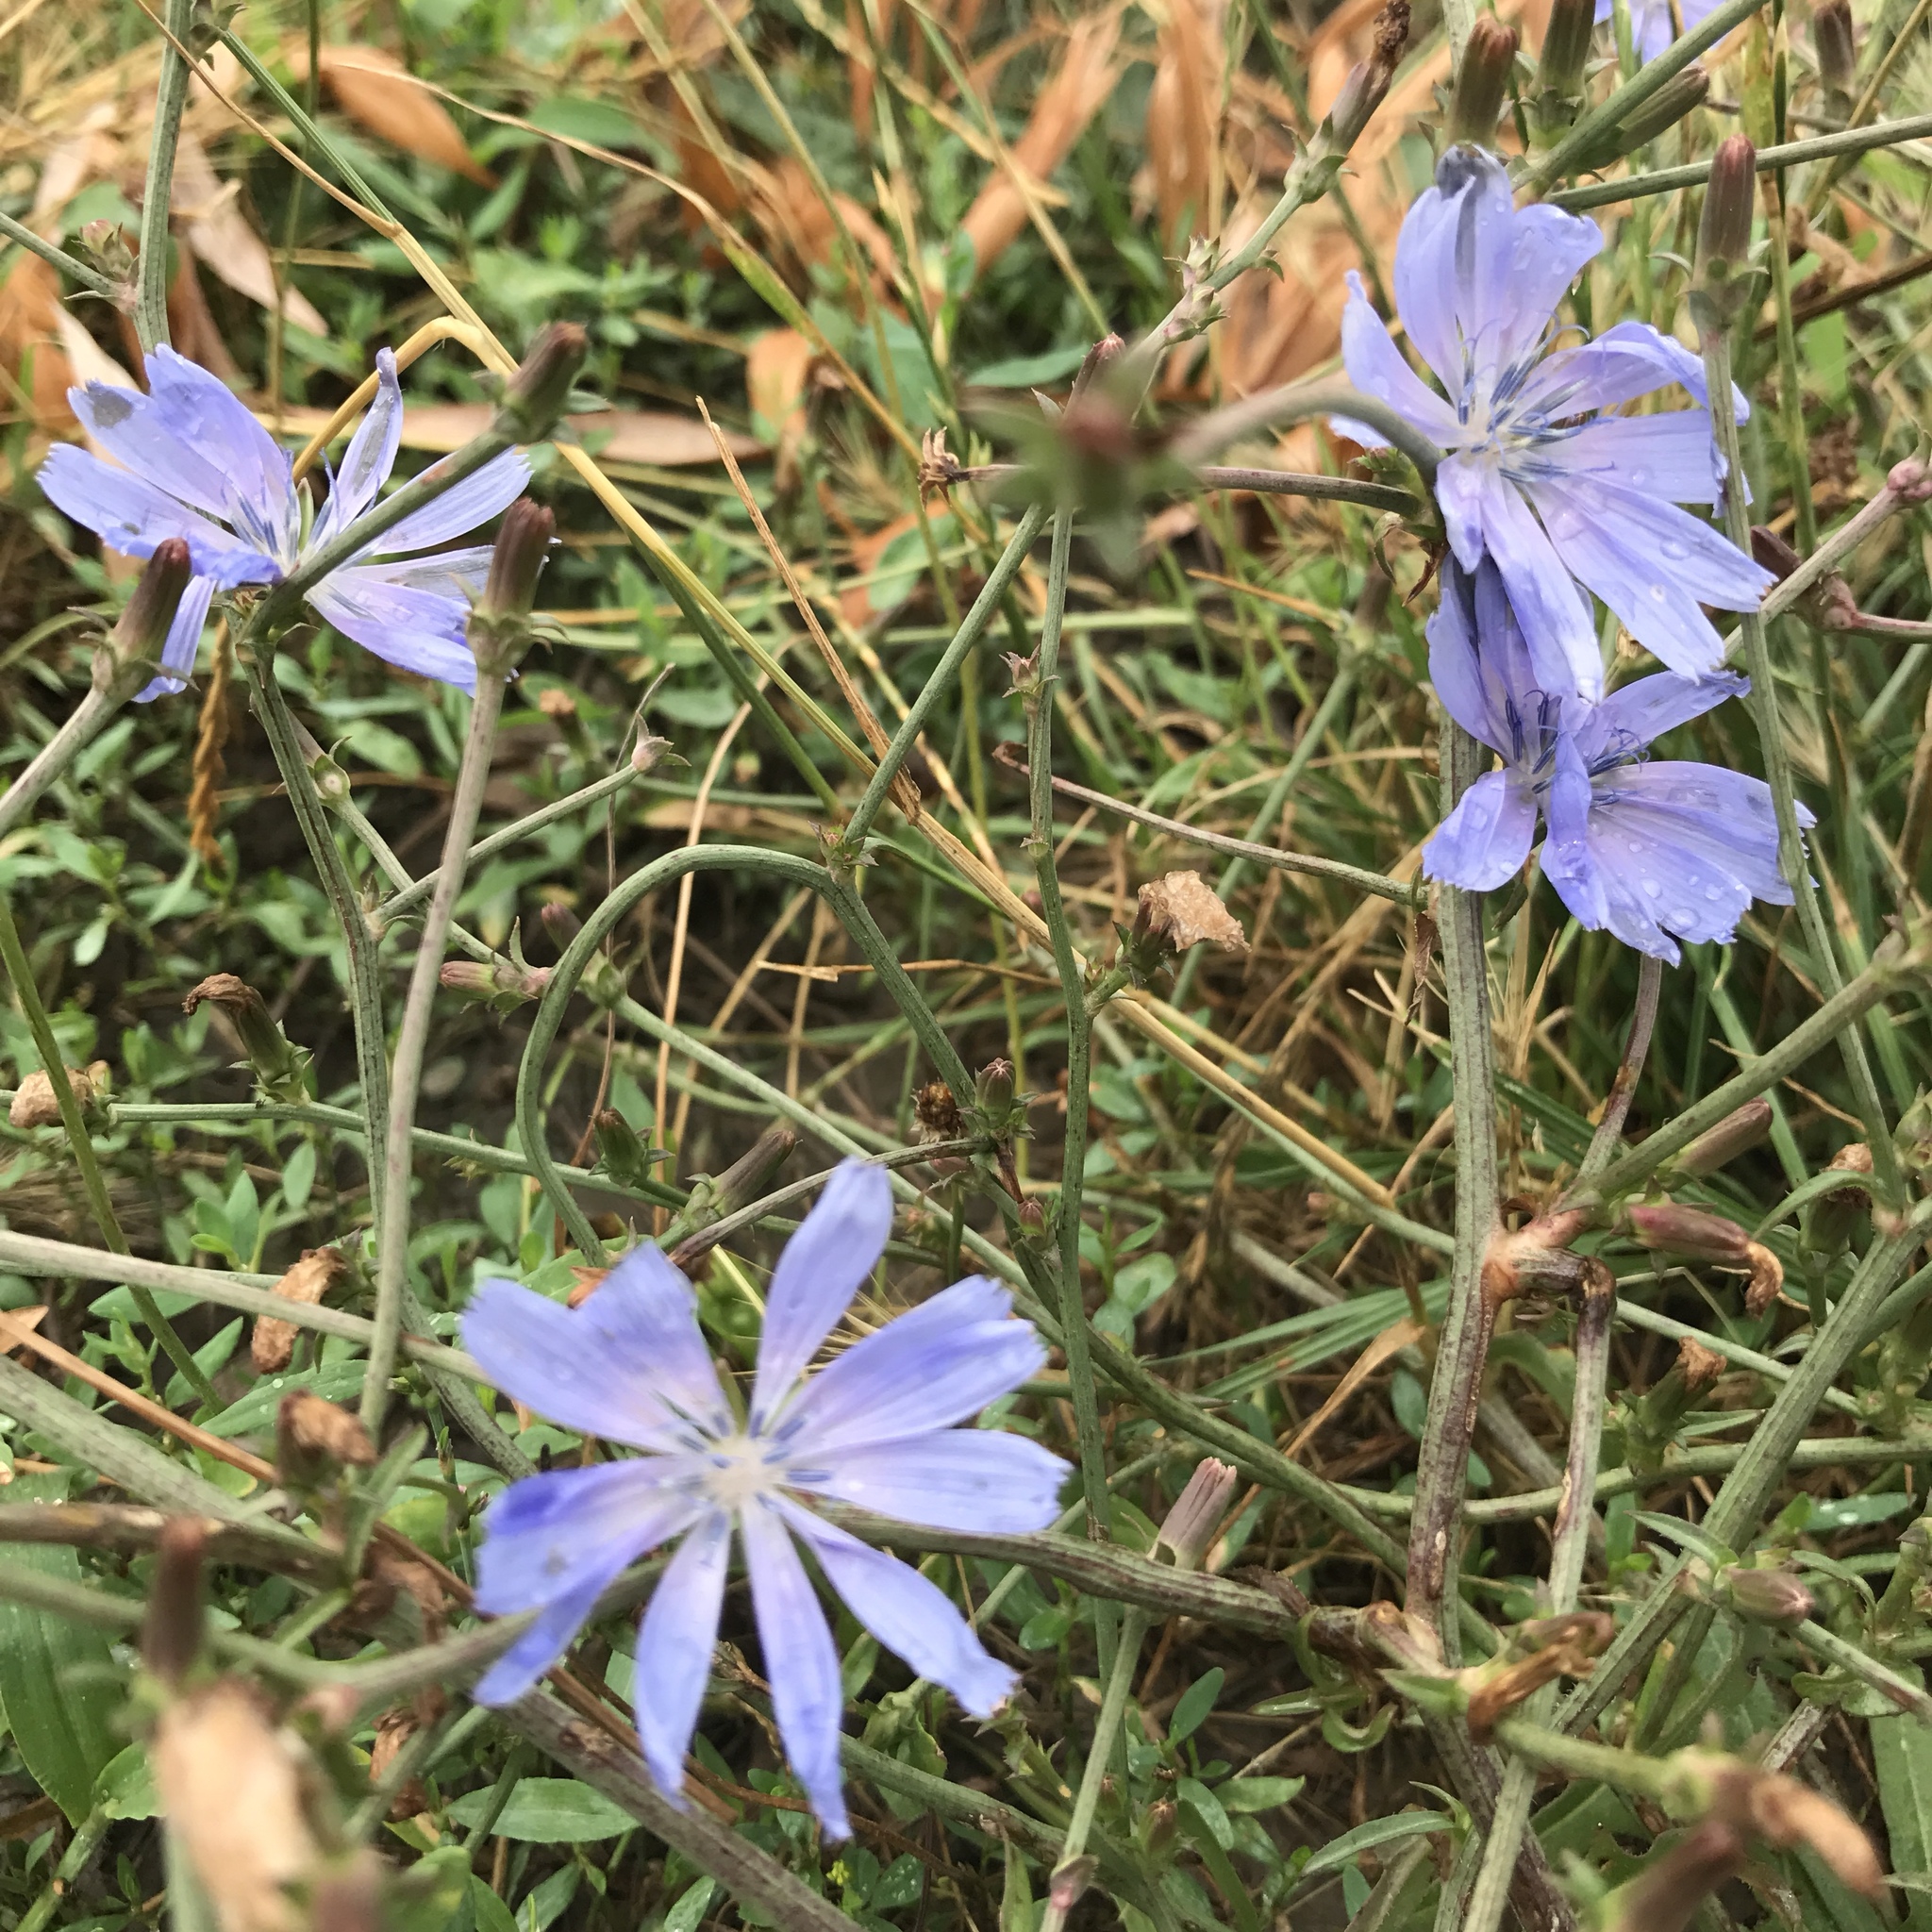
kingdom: Plantae
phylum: Tracheophyta
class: Magnoliopsida
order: Asterales
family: Asteraceae
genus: Cichorium
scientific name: Cichorium intybus
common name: Chicory
